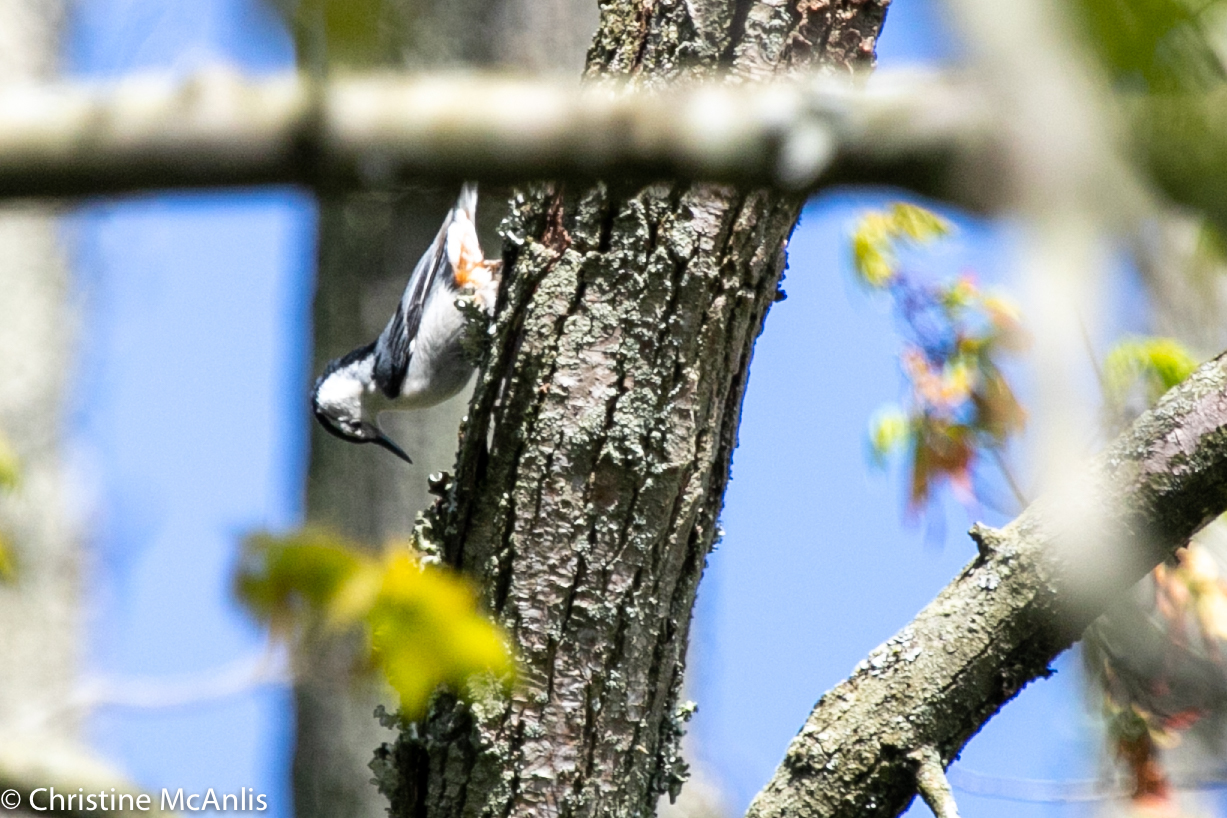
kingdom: Animalia
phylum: Chordata
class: Aves
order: Passeriformes
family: Sittidae
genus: Sitta
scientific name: Sitta carolinensis
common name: White-breasted nuthatch
